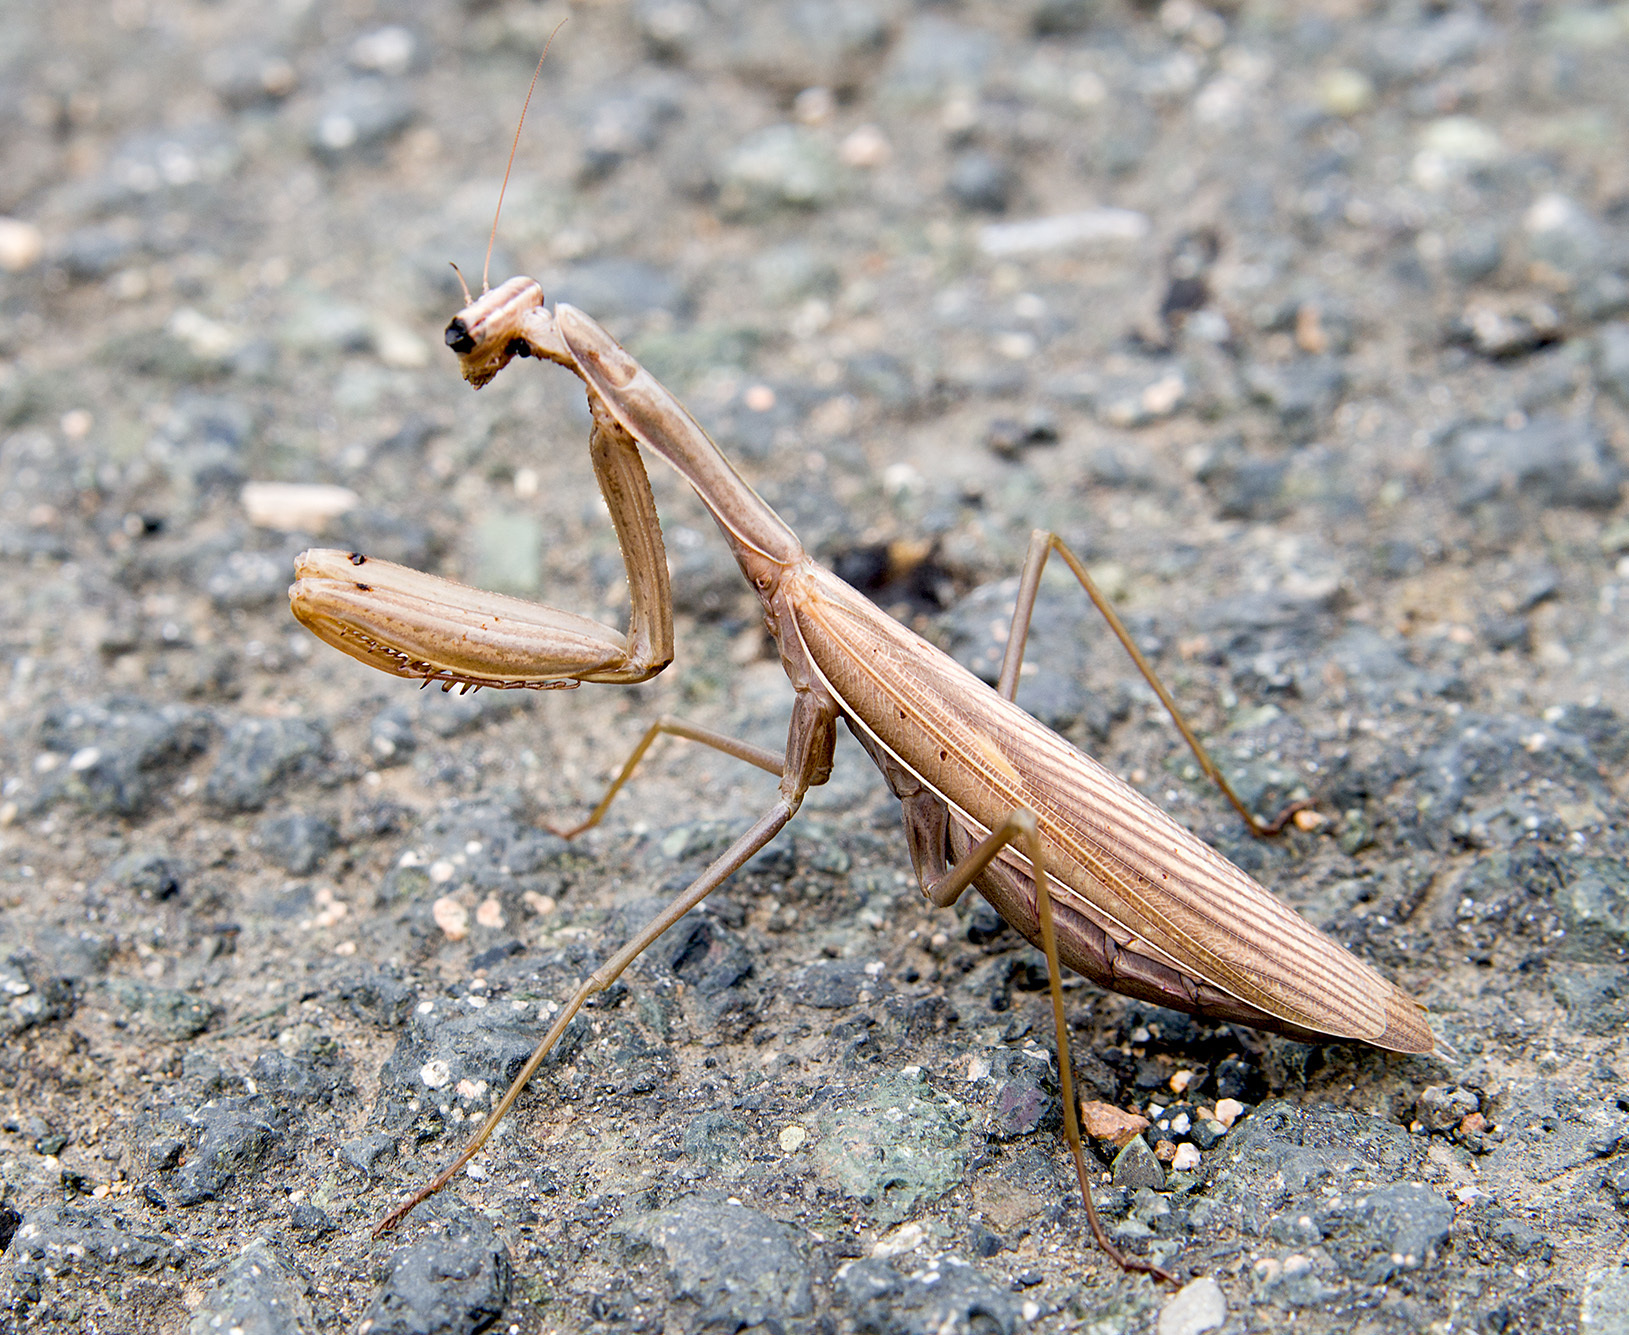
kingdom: Animalia
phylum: Arthropoda
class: Insecta
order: Mantodea
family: Mantidae
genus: Mantis
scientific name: Mantis religiosa
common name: Praying mantis
